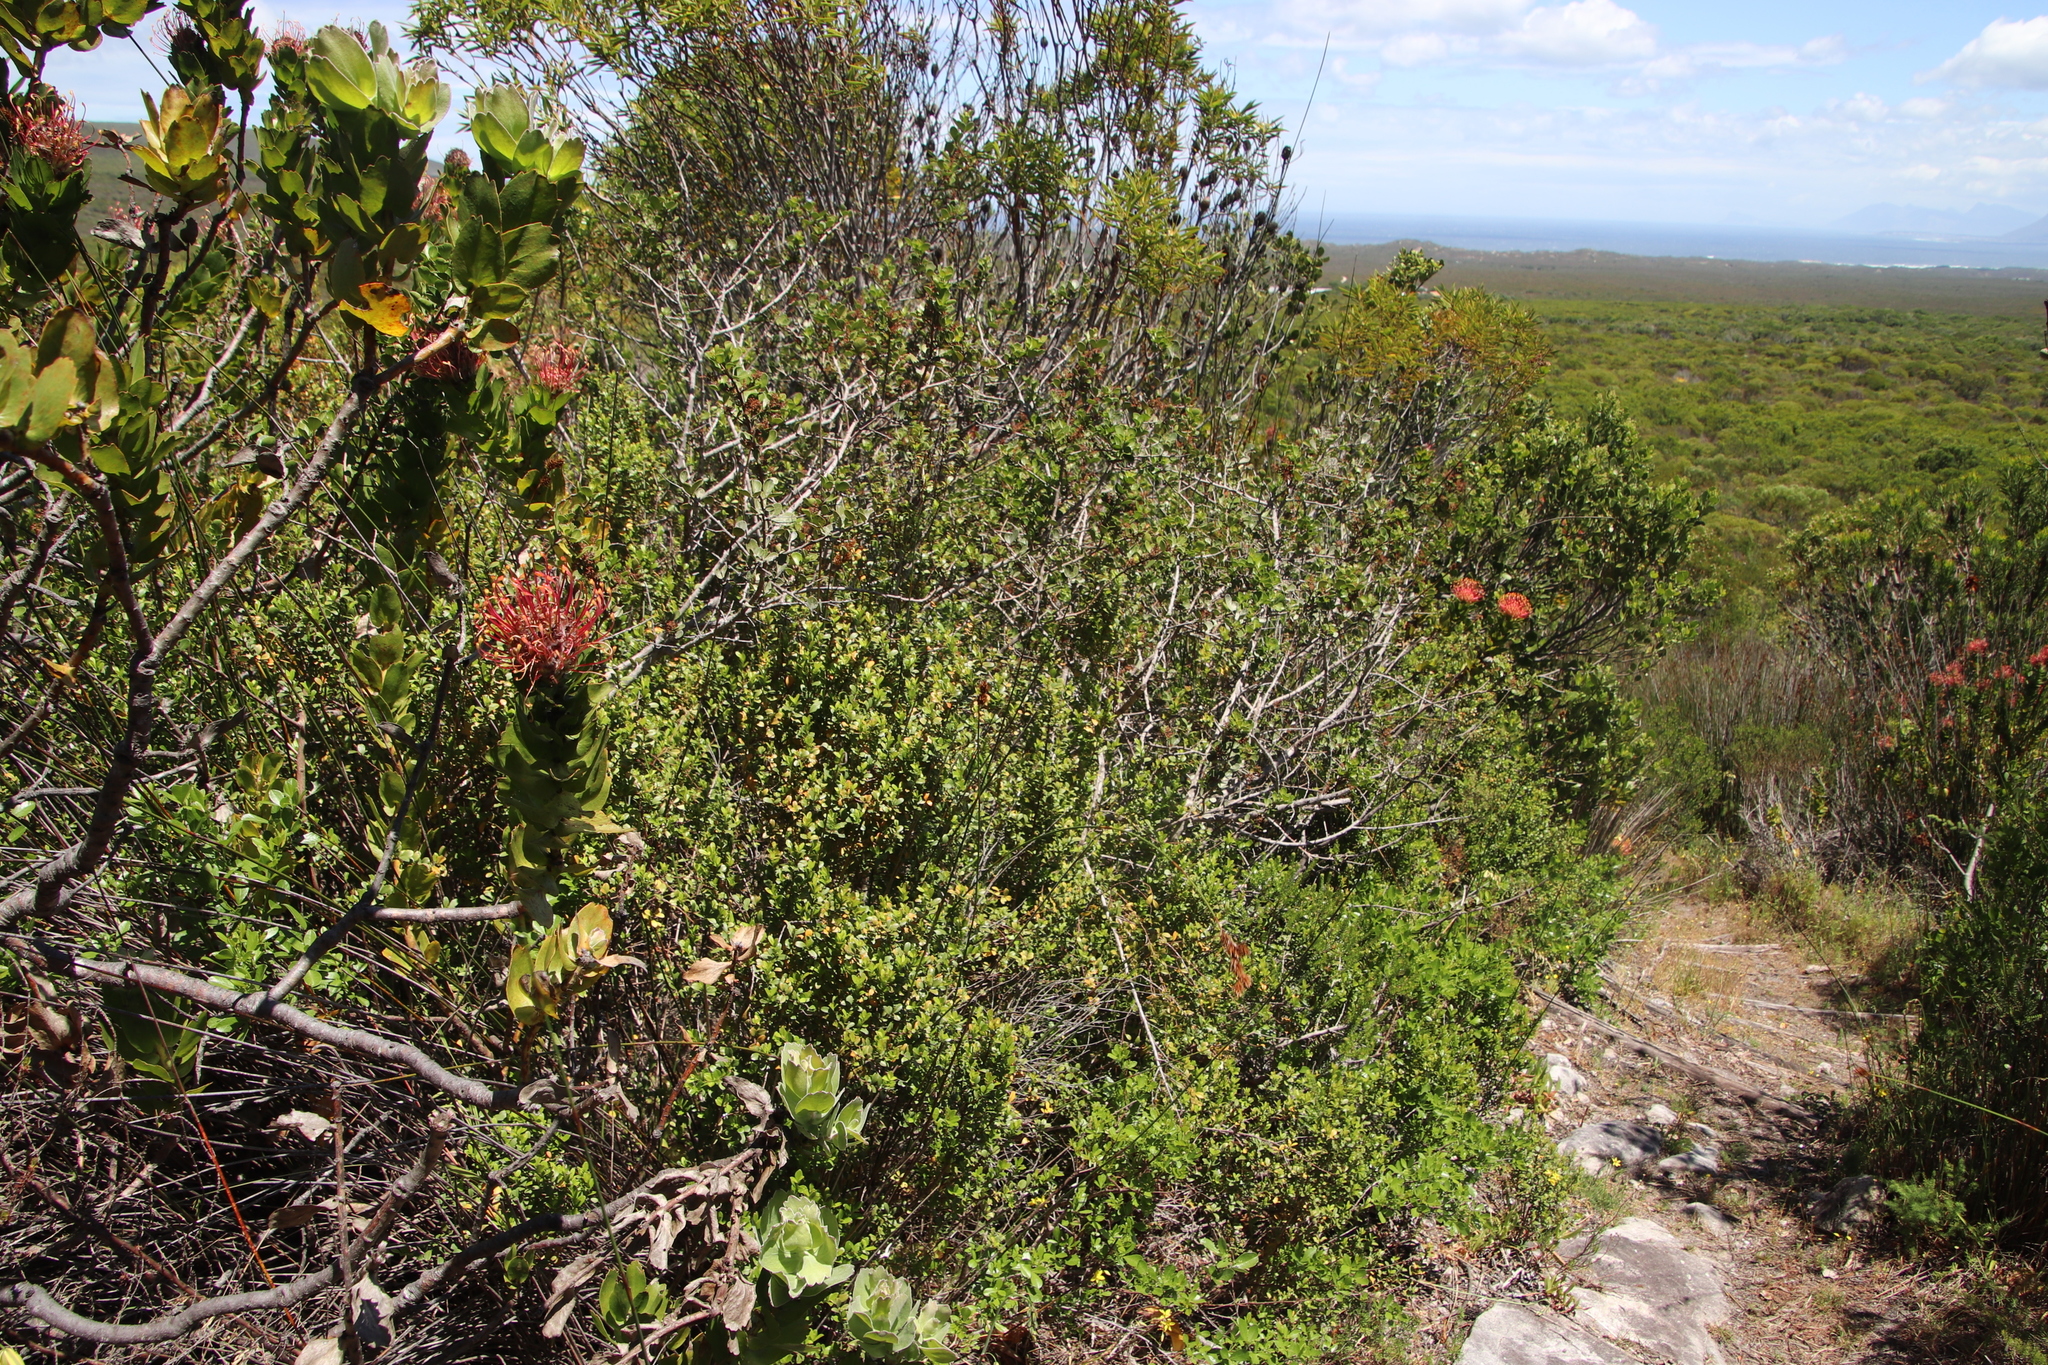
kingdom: Plantae
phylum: Tracheophyta
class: Magnoliopsida
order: Ericales
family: Primulaceae
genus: Myrsine
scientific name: Myrsine africana
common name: African-boxwood
